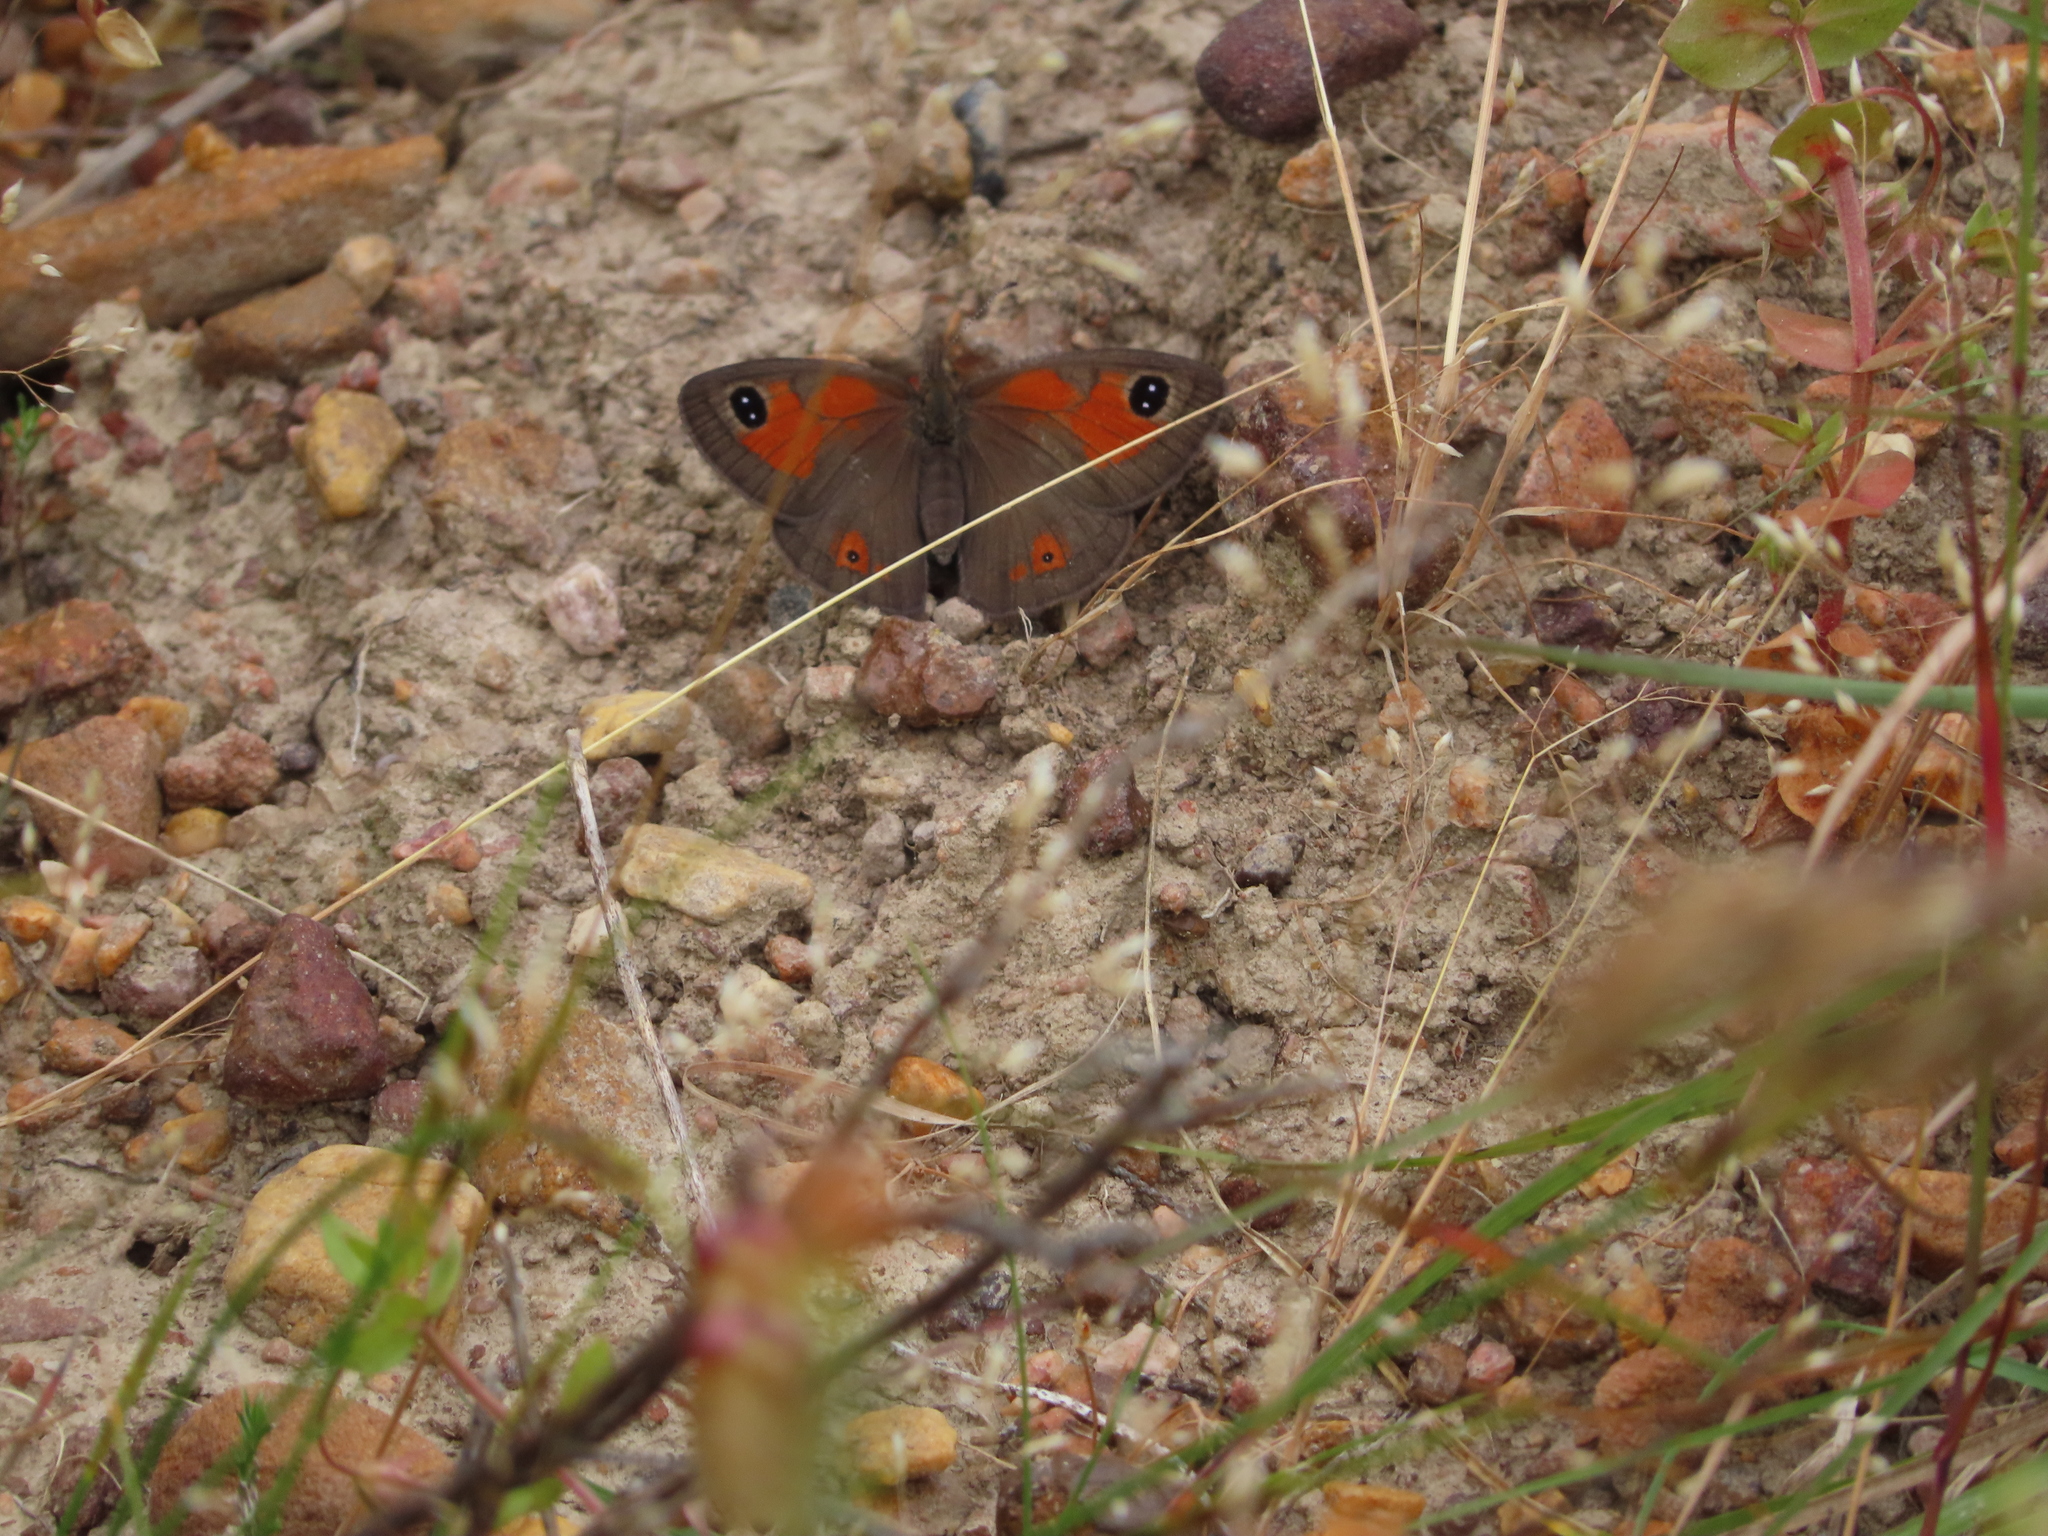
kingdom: Animalia
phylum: Arthropoda
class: Insecta
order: Lepidoptera
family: Nymphalidae
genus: Pseudonympha
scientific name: Pseudonympha magus
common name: Silver-bottom brown
